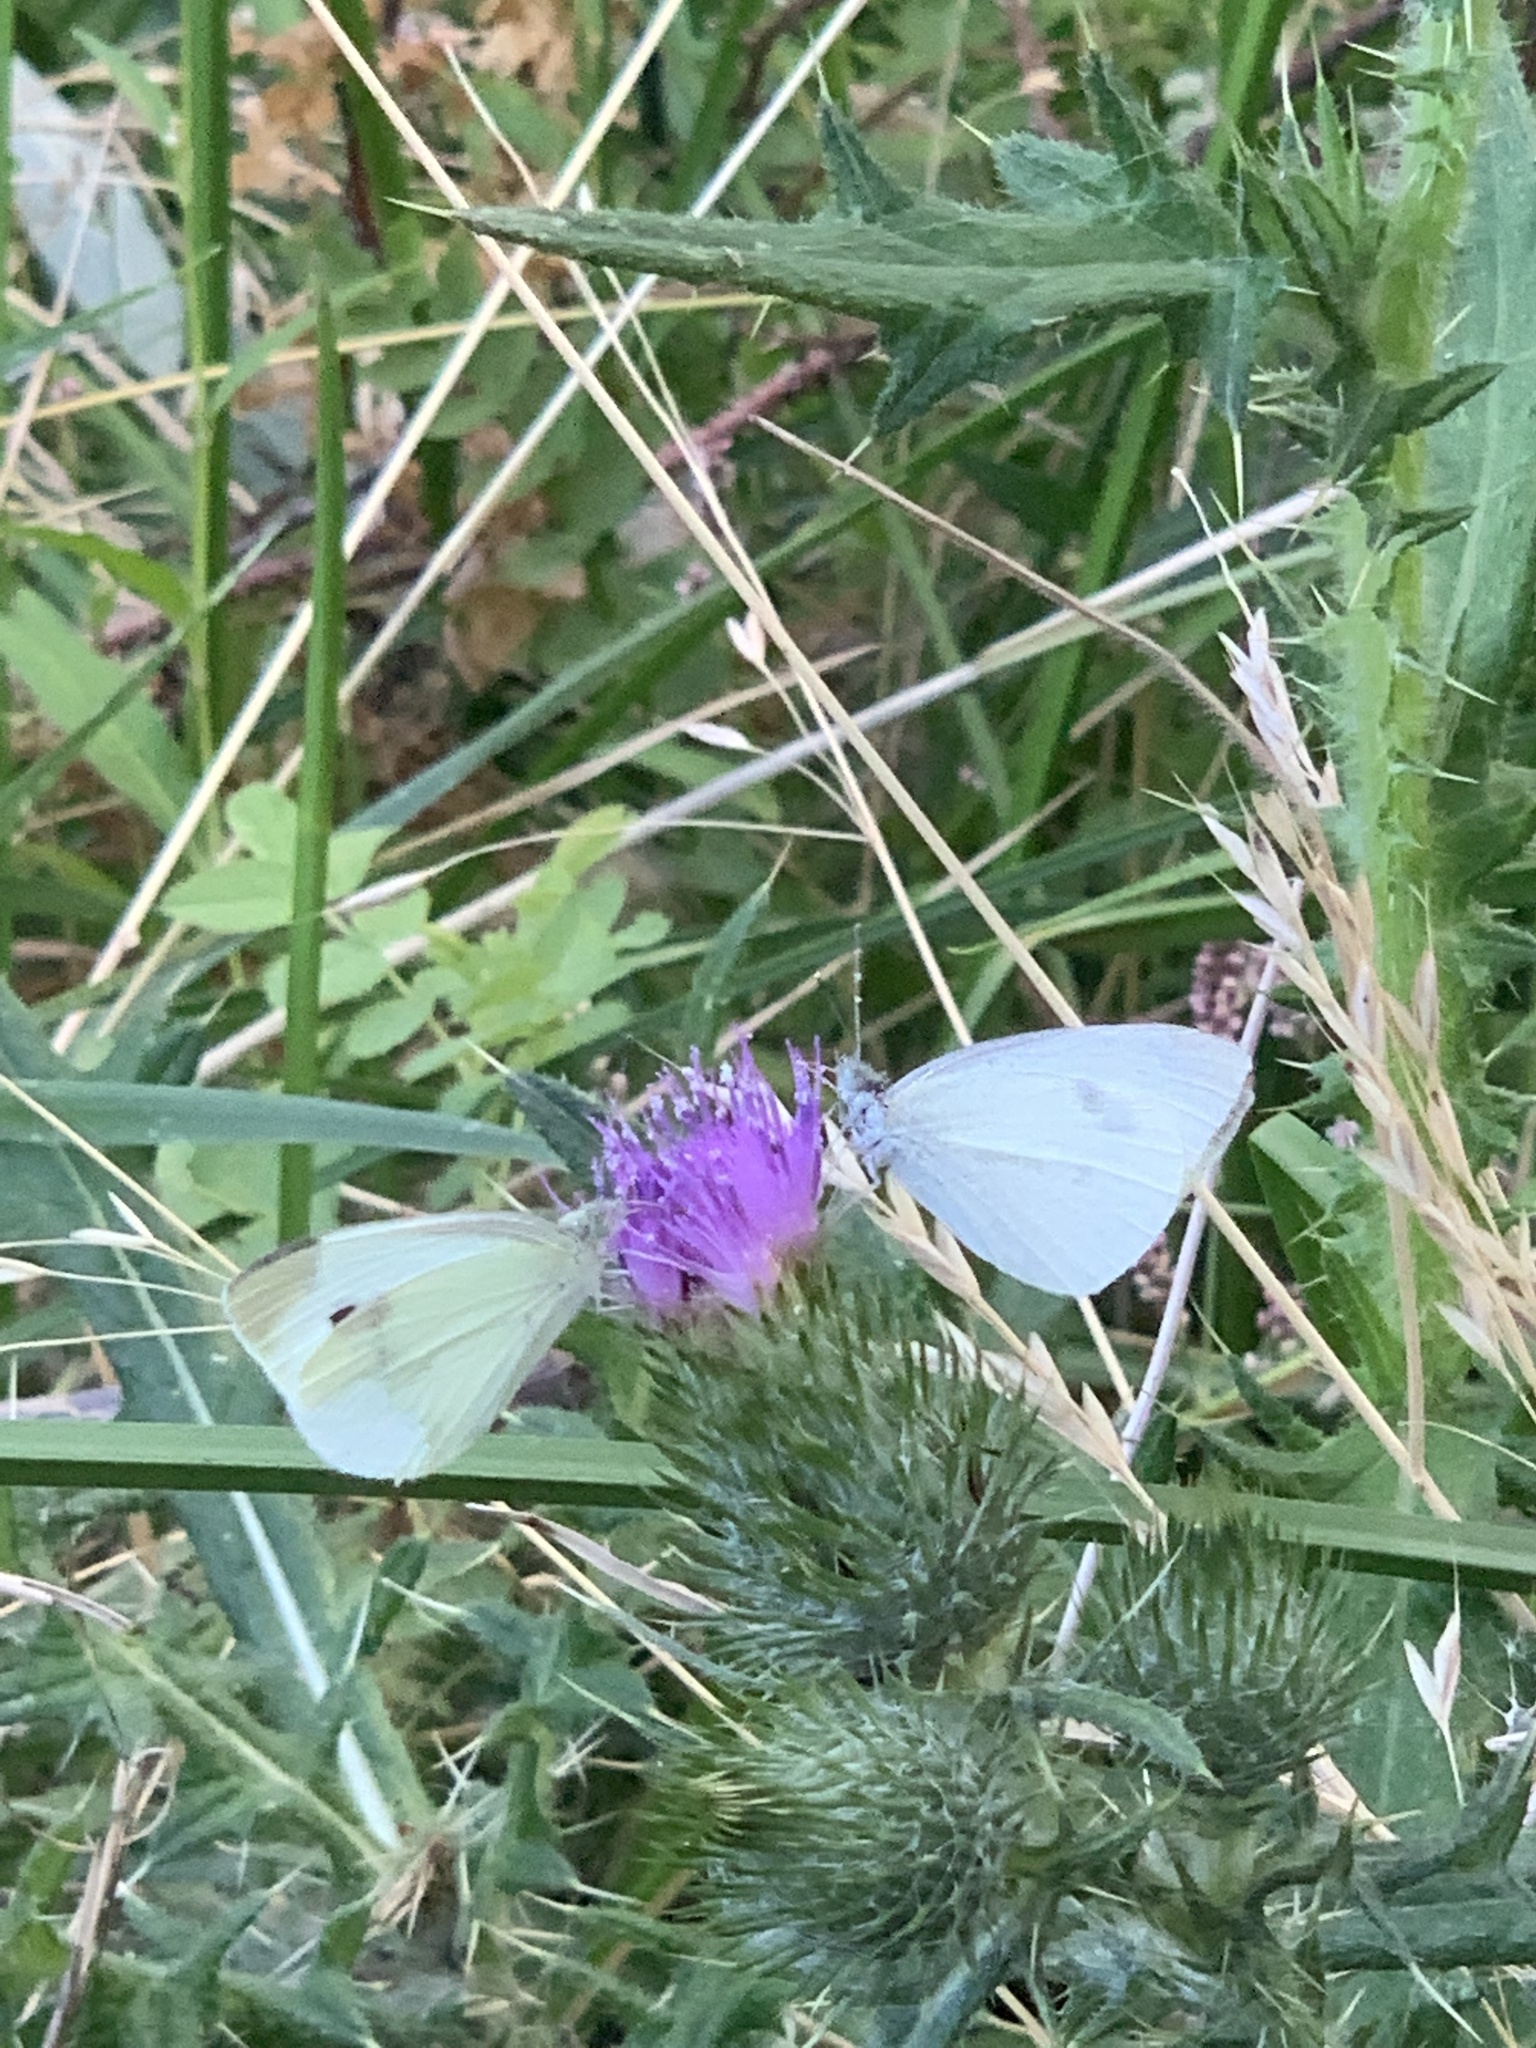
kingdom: Animalia
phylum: Arthropoda
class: Insecta
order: Lepidoptera
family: Pieridae
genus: Pieris
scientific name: Pieris rapae
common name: Small white
